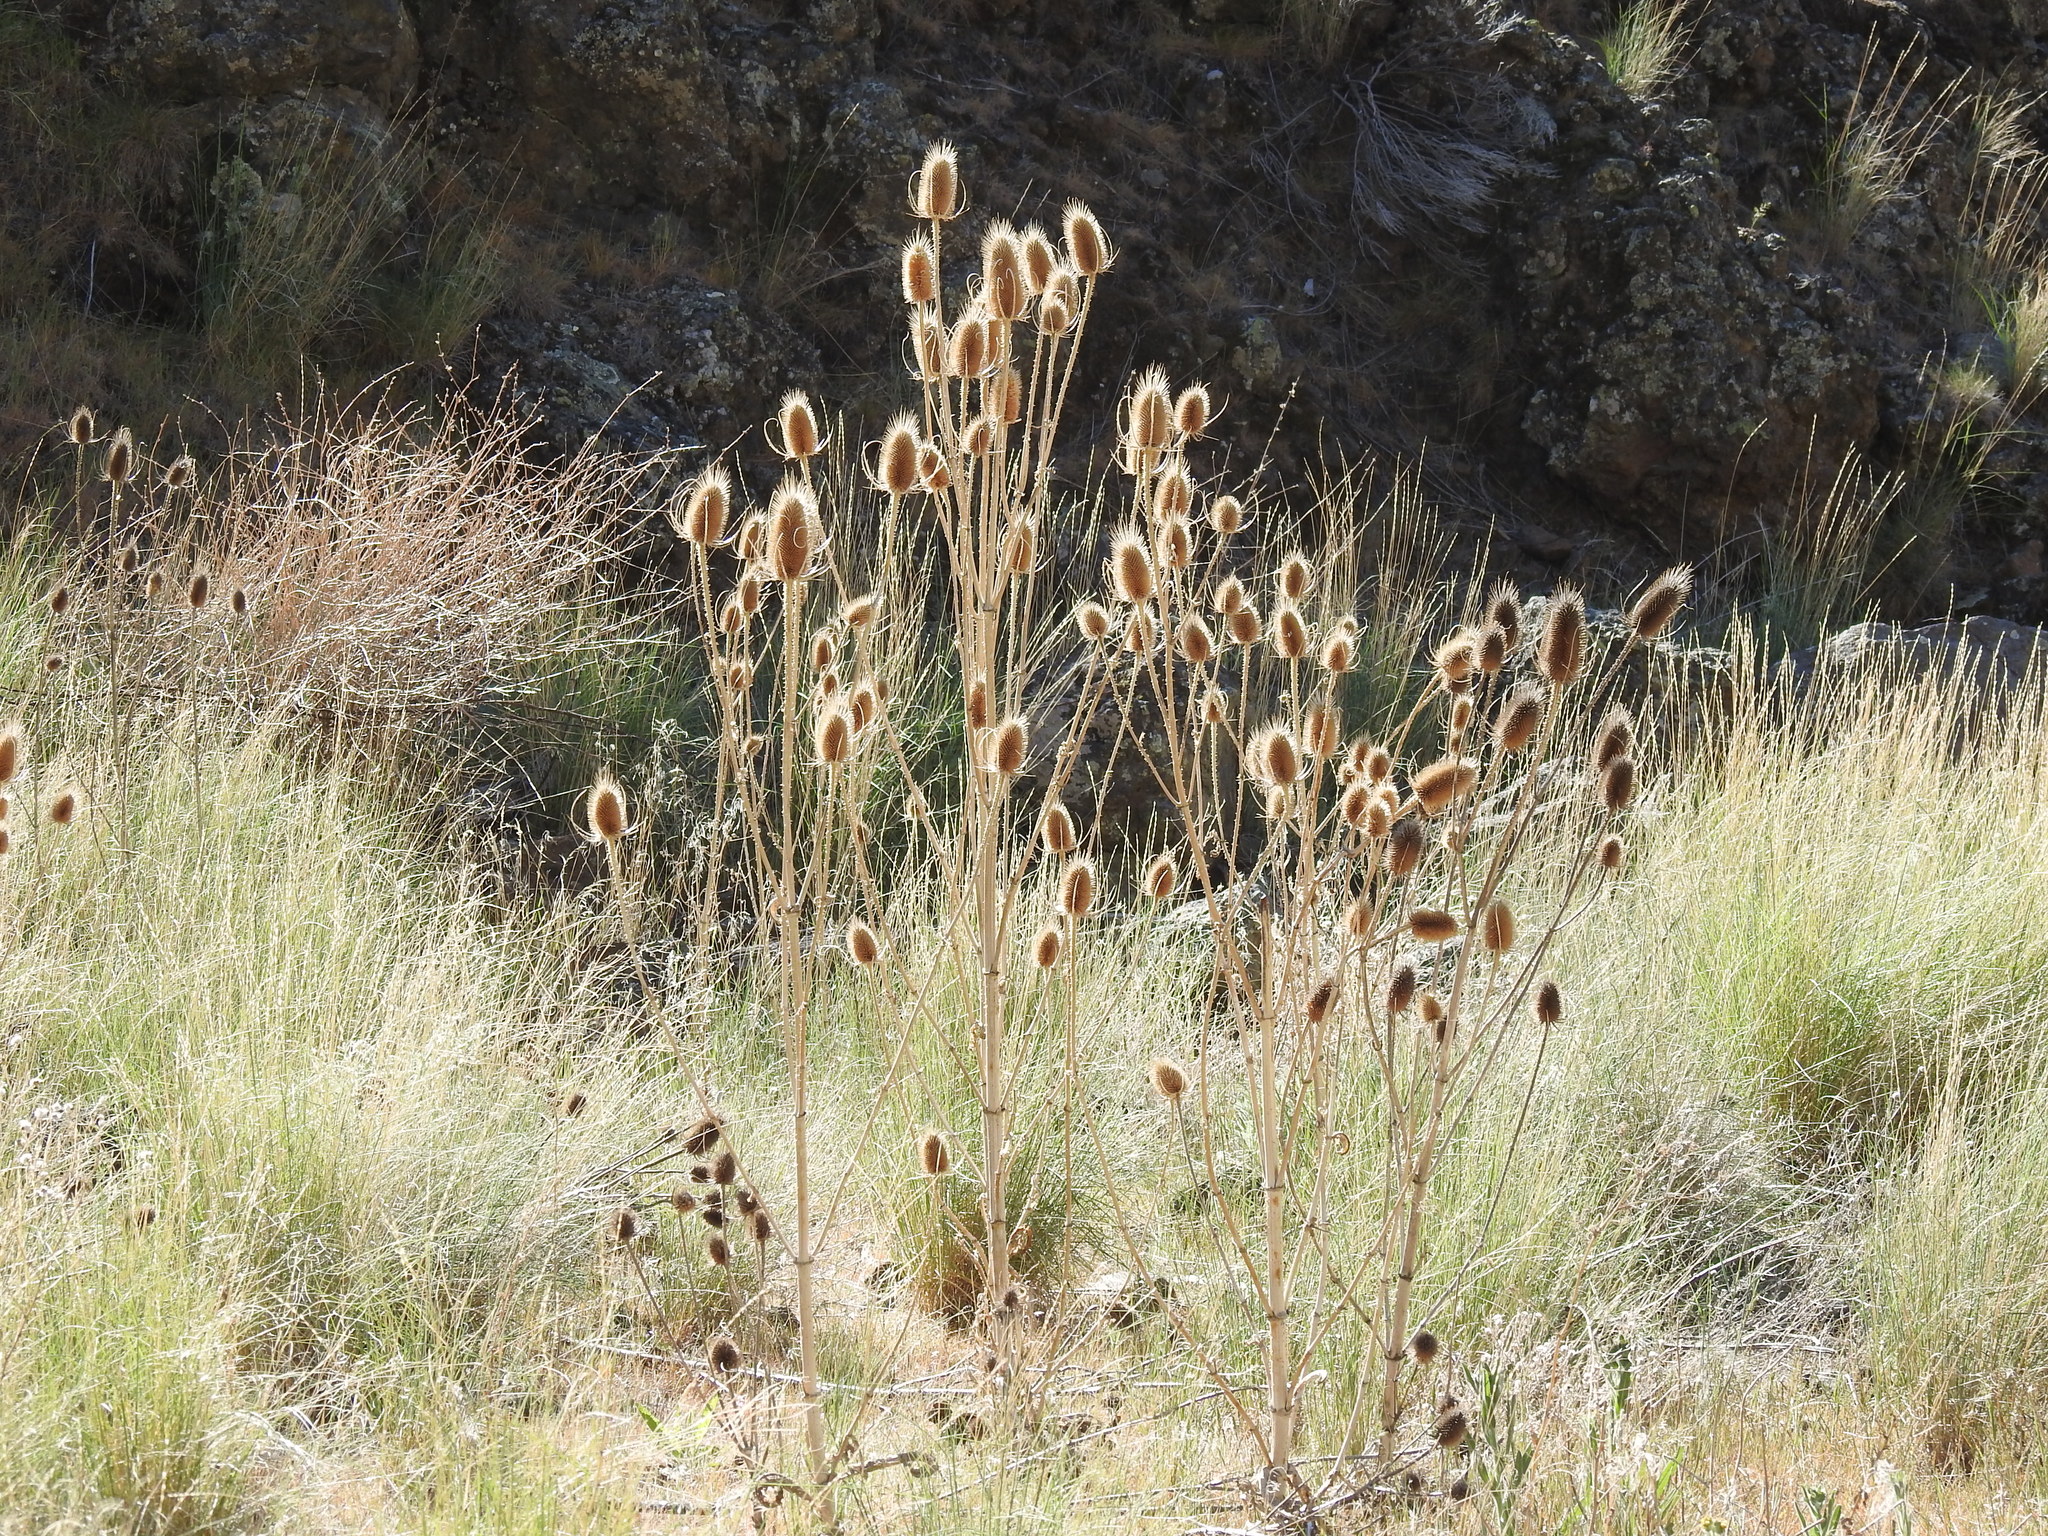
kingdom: Plantae
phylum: Tracheophyta
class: Magnoliopsida
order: Dipsacales
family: Caprifoliaceae
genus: Dipsacus
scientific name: Dipsacus fullonum
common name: Teasel
